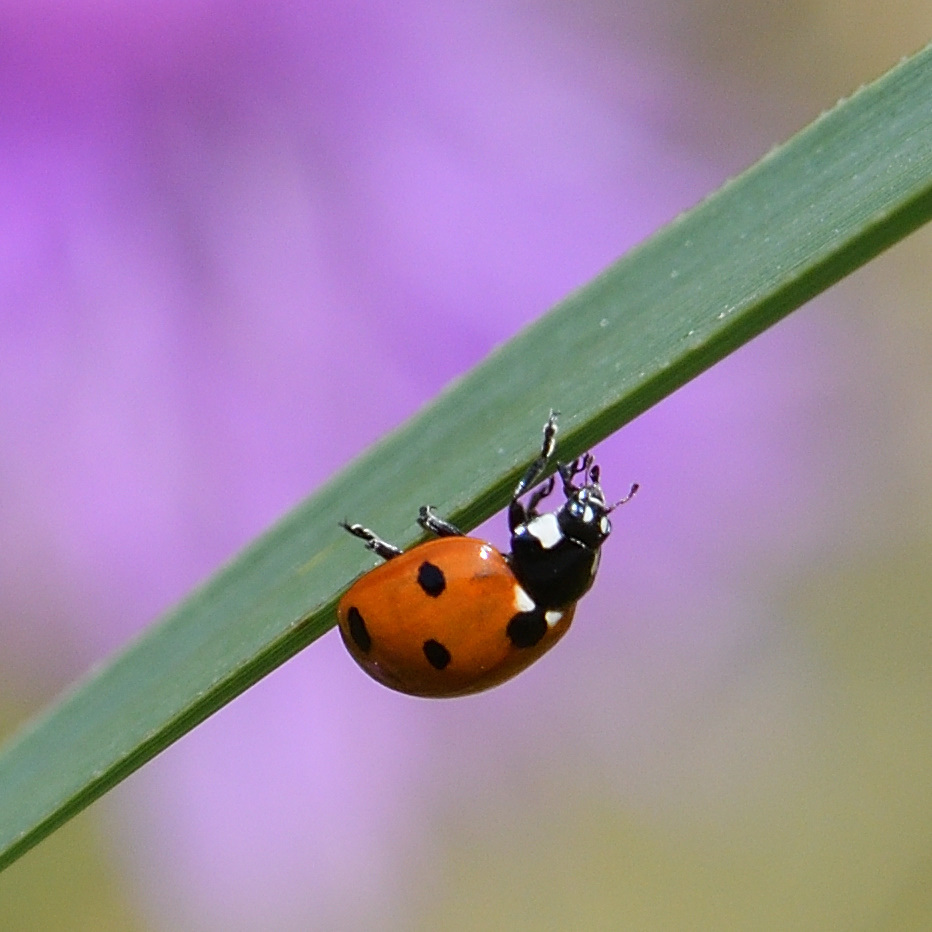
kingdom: Animalia
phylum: Arthropoda
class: Insecta
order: Coleoptera
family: Coccinellidae
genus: Coccinella
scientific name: Coccinella septempunctata
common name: Sevenspotted lady beetle
